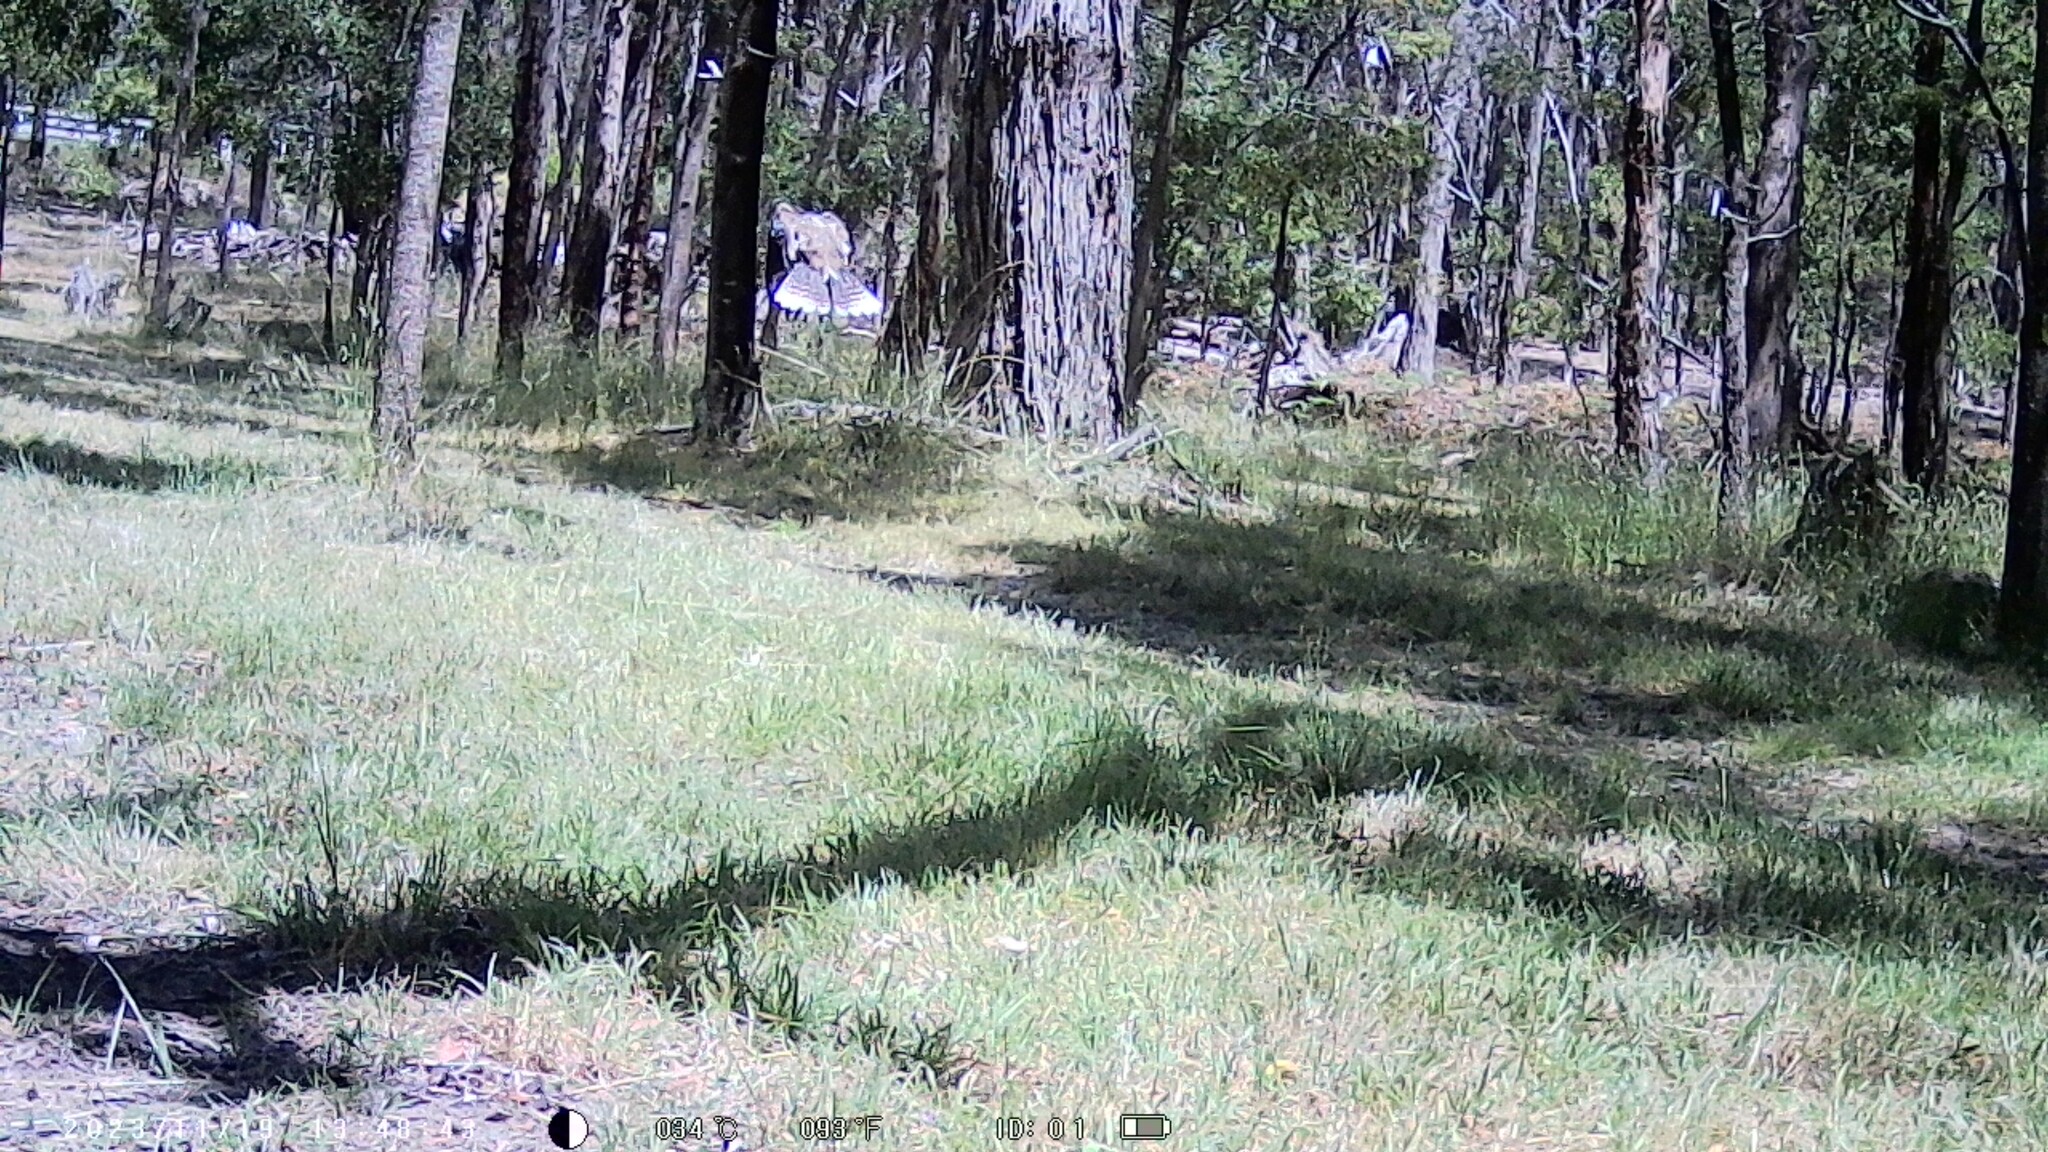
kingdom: Animalia
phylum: Chordata
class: Aves
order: Coraciiformes
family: Alcedinidae
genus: Dacelo
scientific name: Dacelo novaeguineae
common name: Laughing kookaburra
